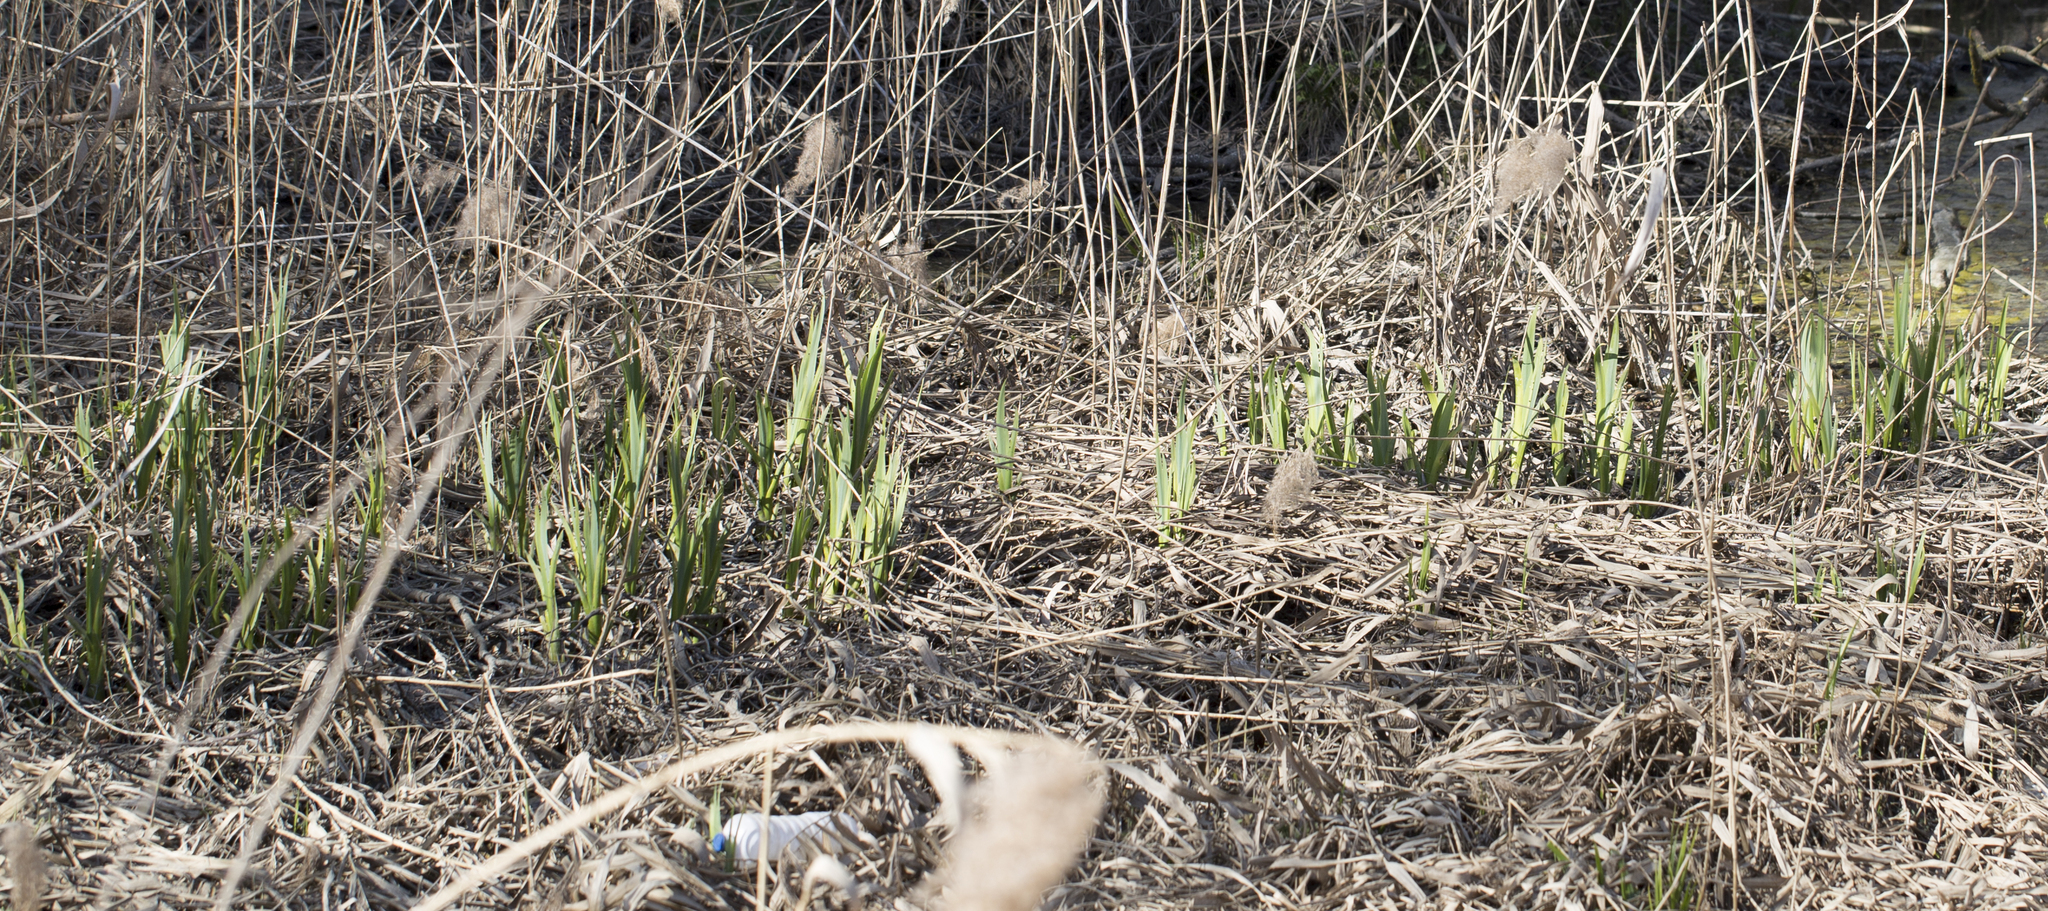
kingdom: Plantae
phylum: Tracheophyta
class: Liliopsida
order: Asparagales
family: Iridaceae
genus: Iris
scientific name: Iris pseudacorus
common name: Yellow flag
